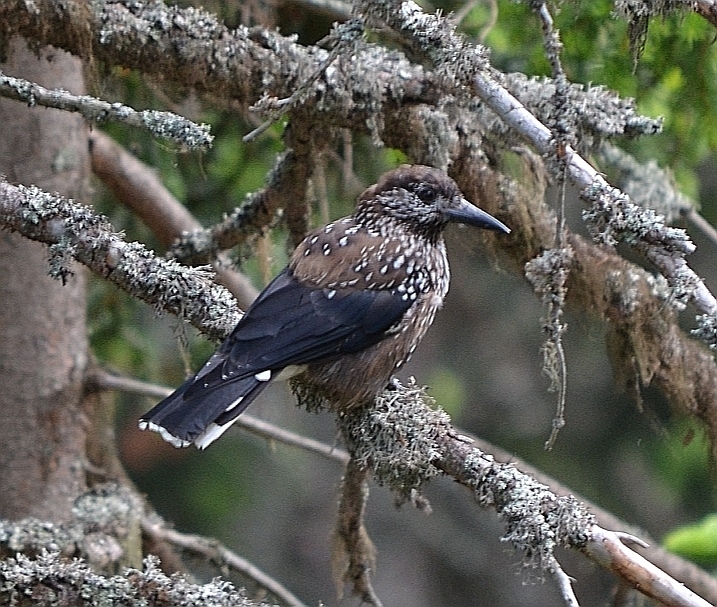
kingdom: Animalia
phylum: Chordata
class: Aves
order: Passeriformes
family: Corvidae
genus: Nucifraga
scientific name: Nucifraga caryocatactes
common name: Spotted nutcracker
